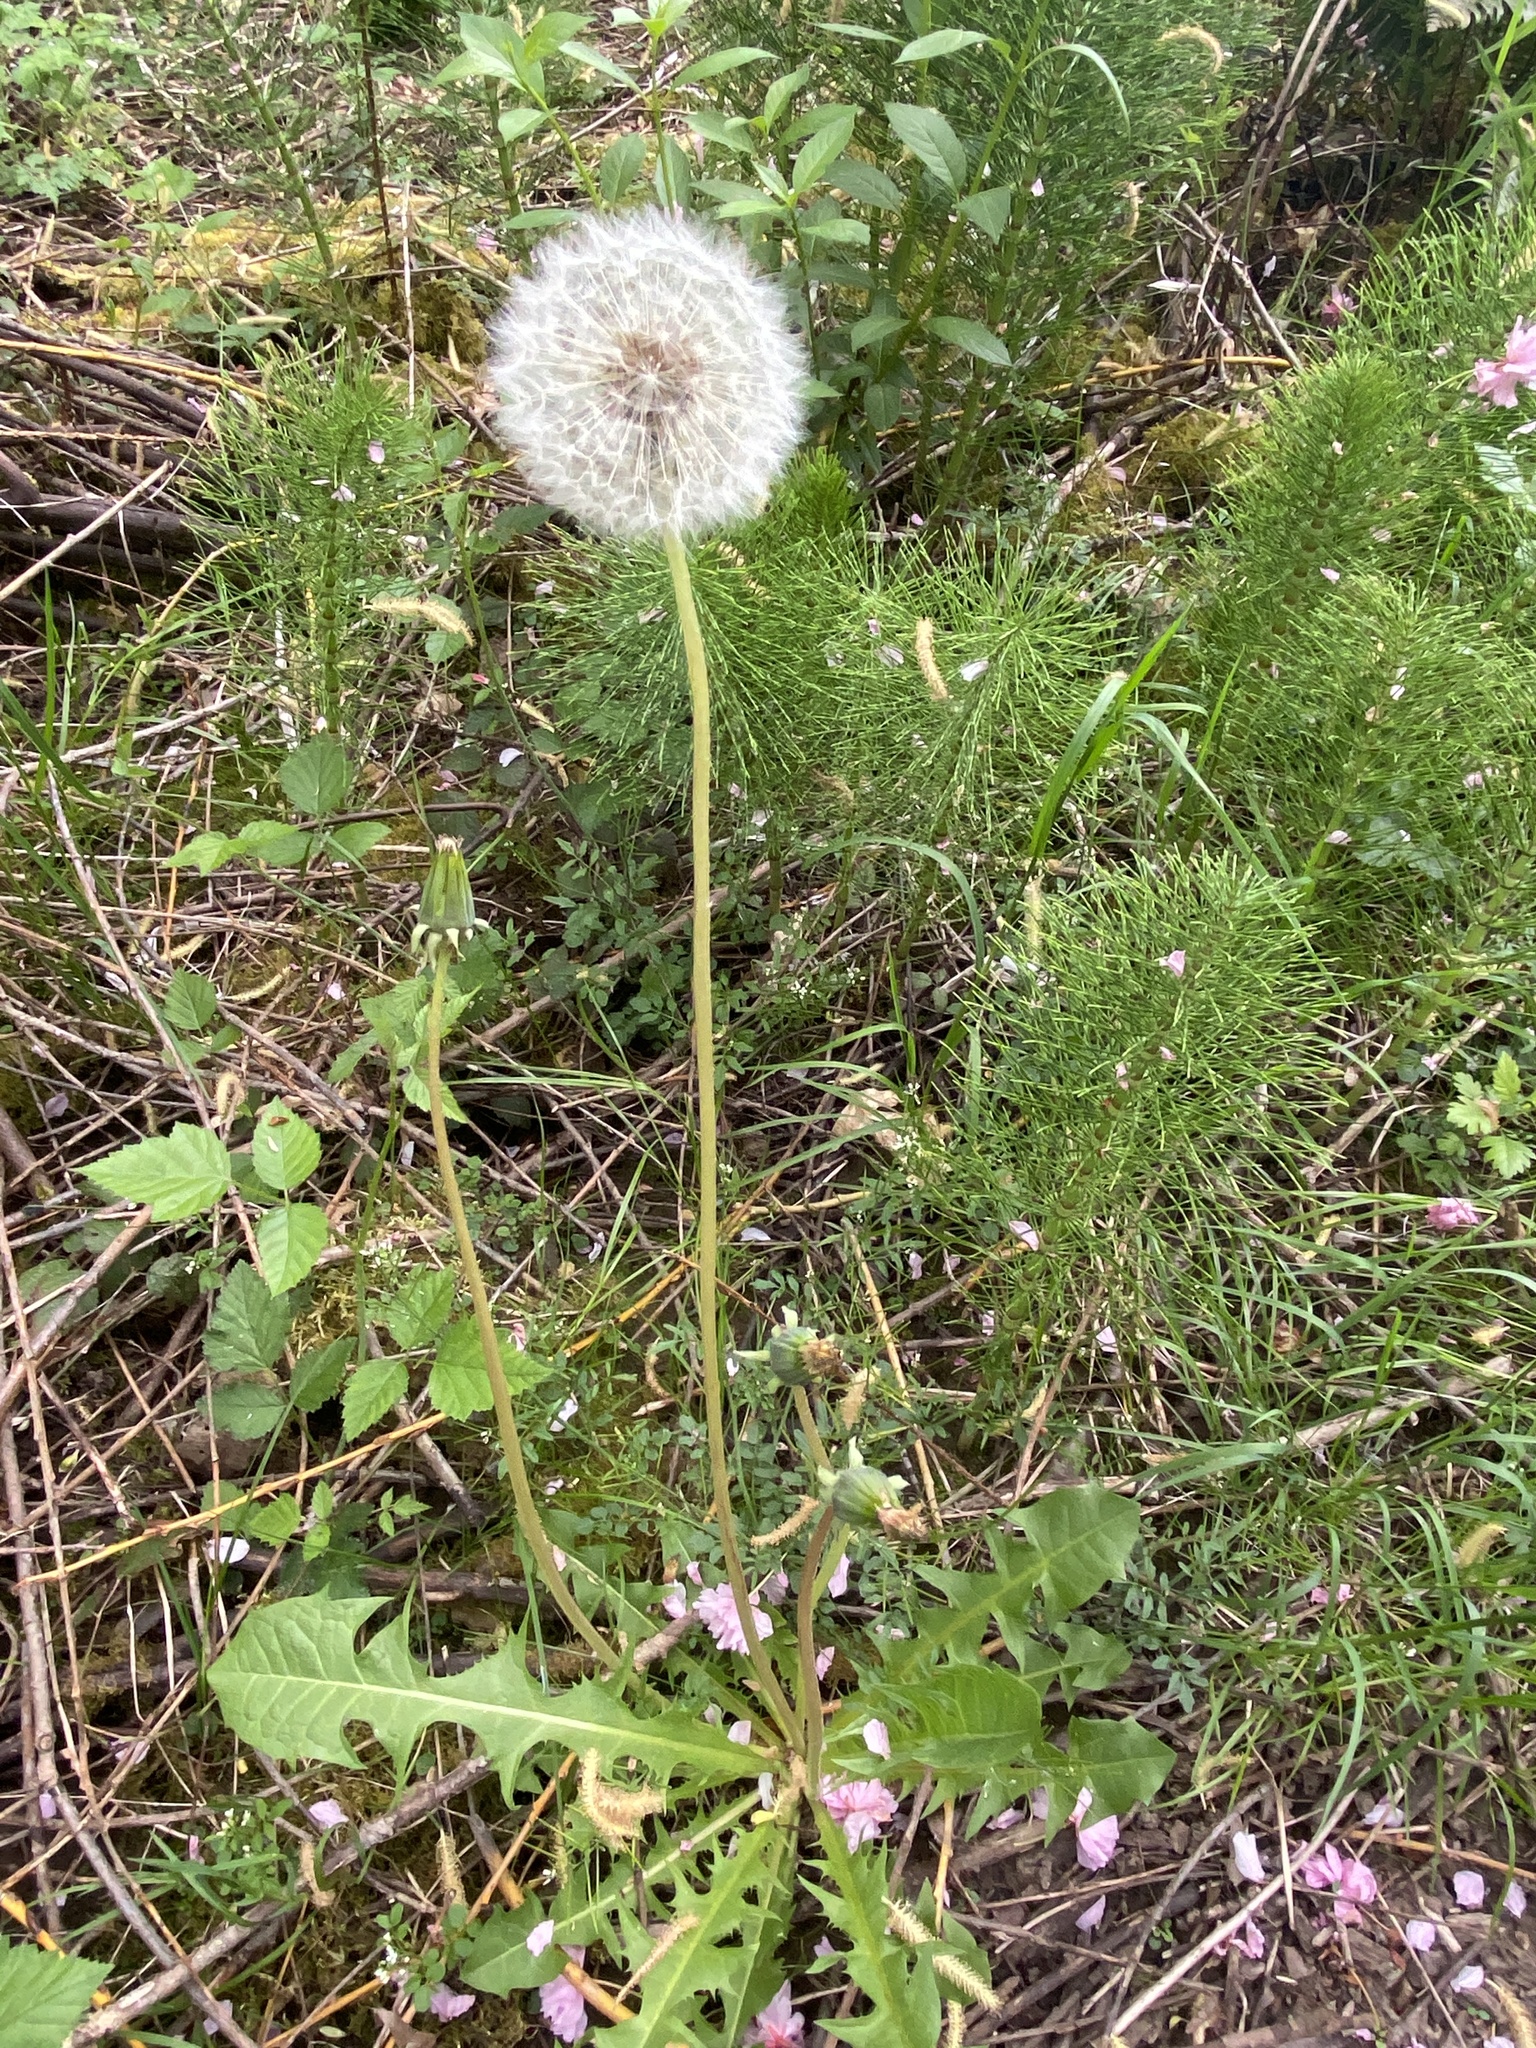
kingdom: Plantae
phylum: Tracheophyta
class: Magnoliopsida
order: Asterales
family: Asteraceae
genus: Taraxacum
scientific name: Taraxacum officinale
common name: Common dandelion
